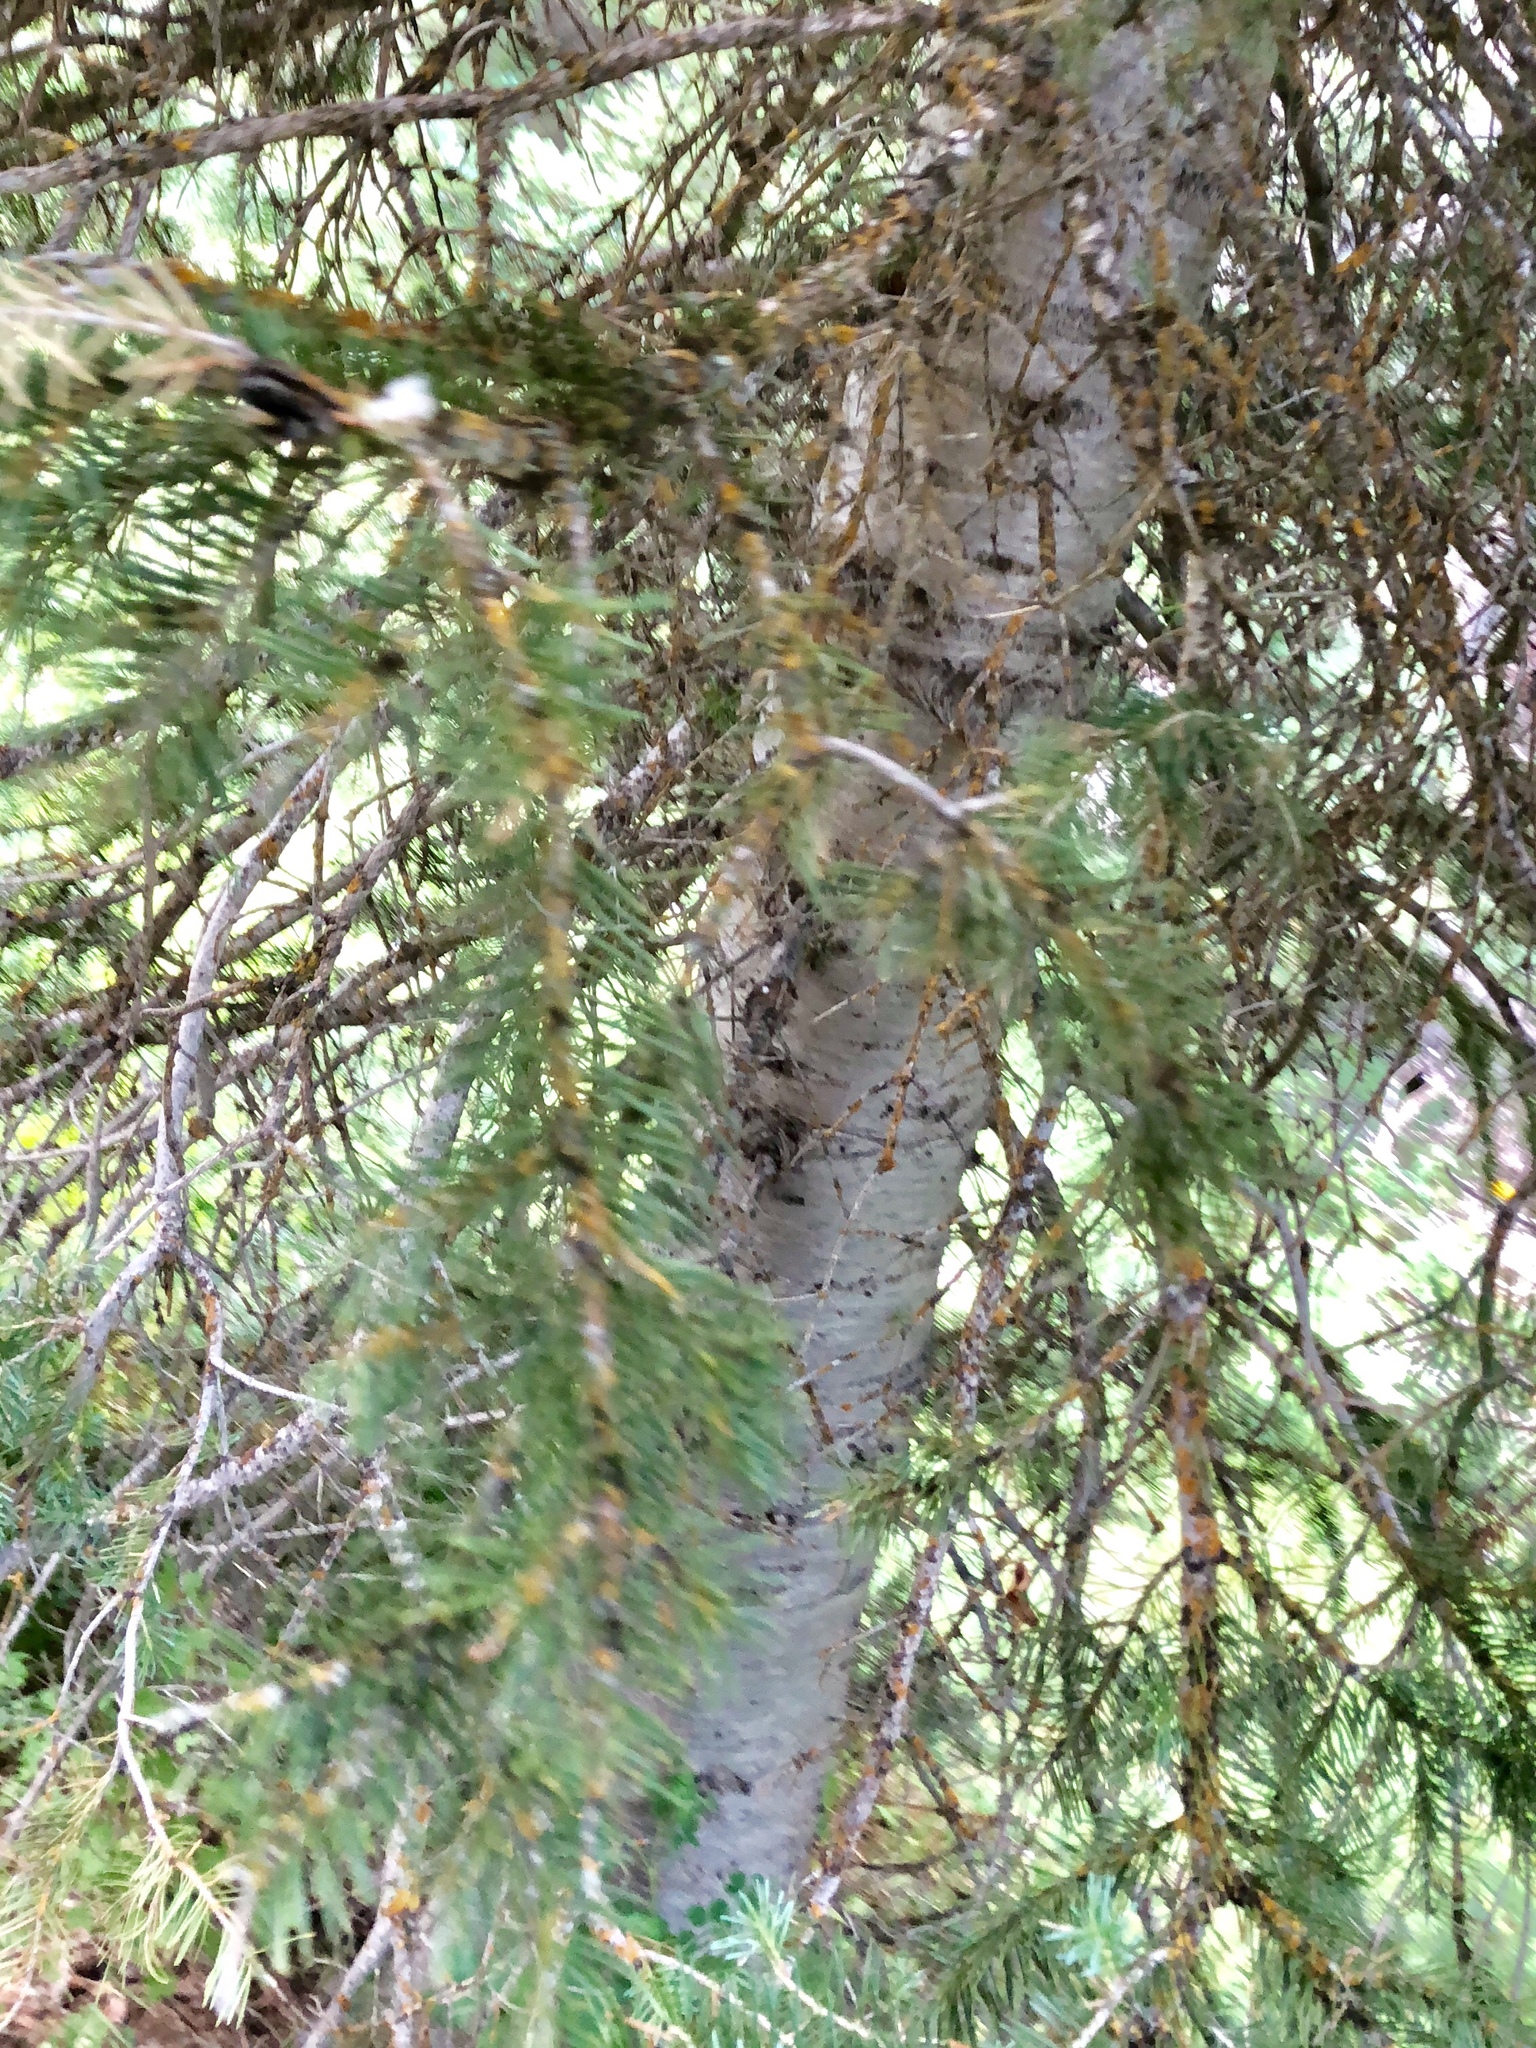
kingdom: Plantae
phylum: Tracheophyta
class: Pinopsida
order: Pinales
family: Pinaceae
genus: Abies
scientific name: Abies lasiocarpa
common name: Subalpine fir
